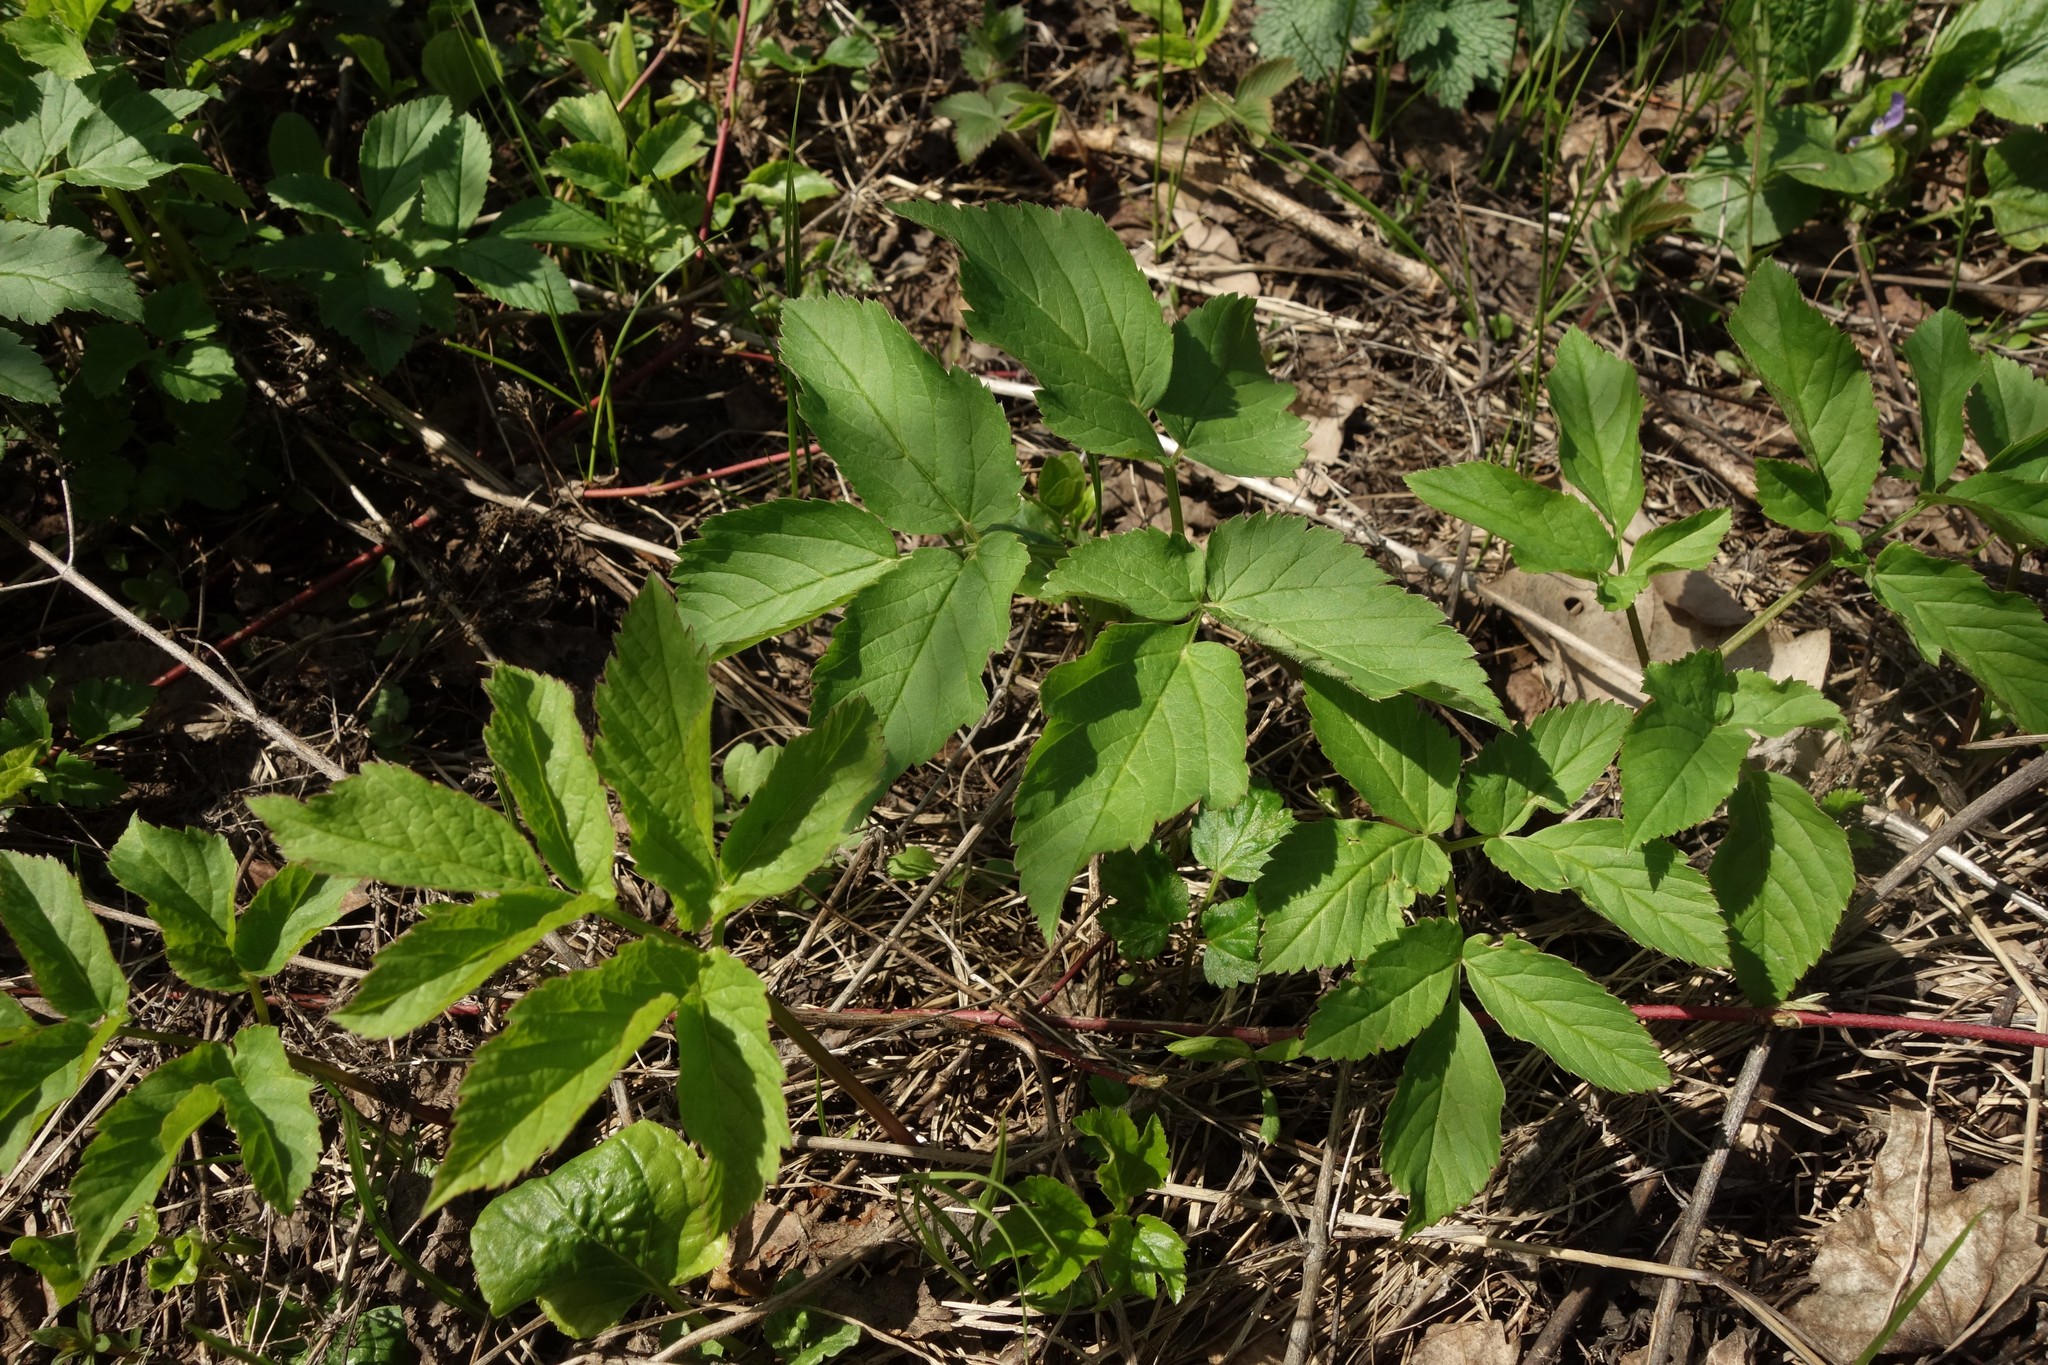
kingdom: Plantae
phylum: Tracheophyta
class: Magnoliopsida
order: Apiales
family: Apiaceae
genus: Aegopodium
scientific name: Aegopodium podagraria
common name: Ground-elder
